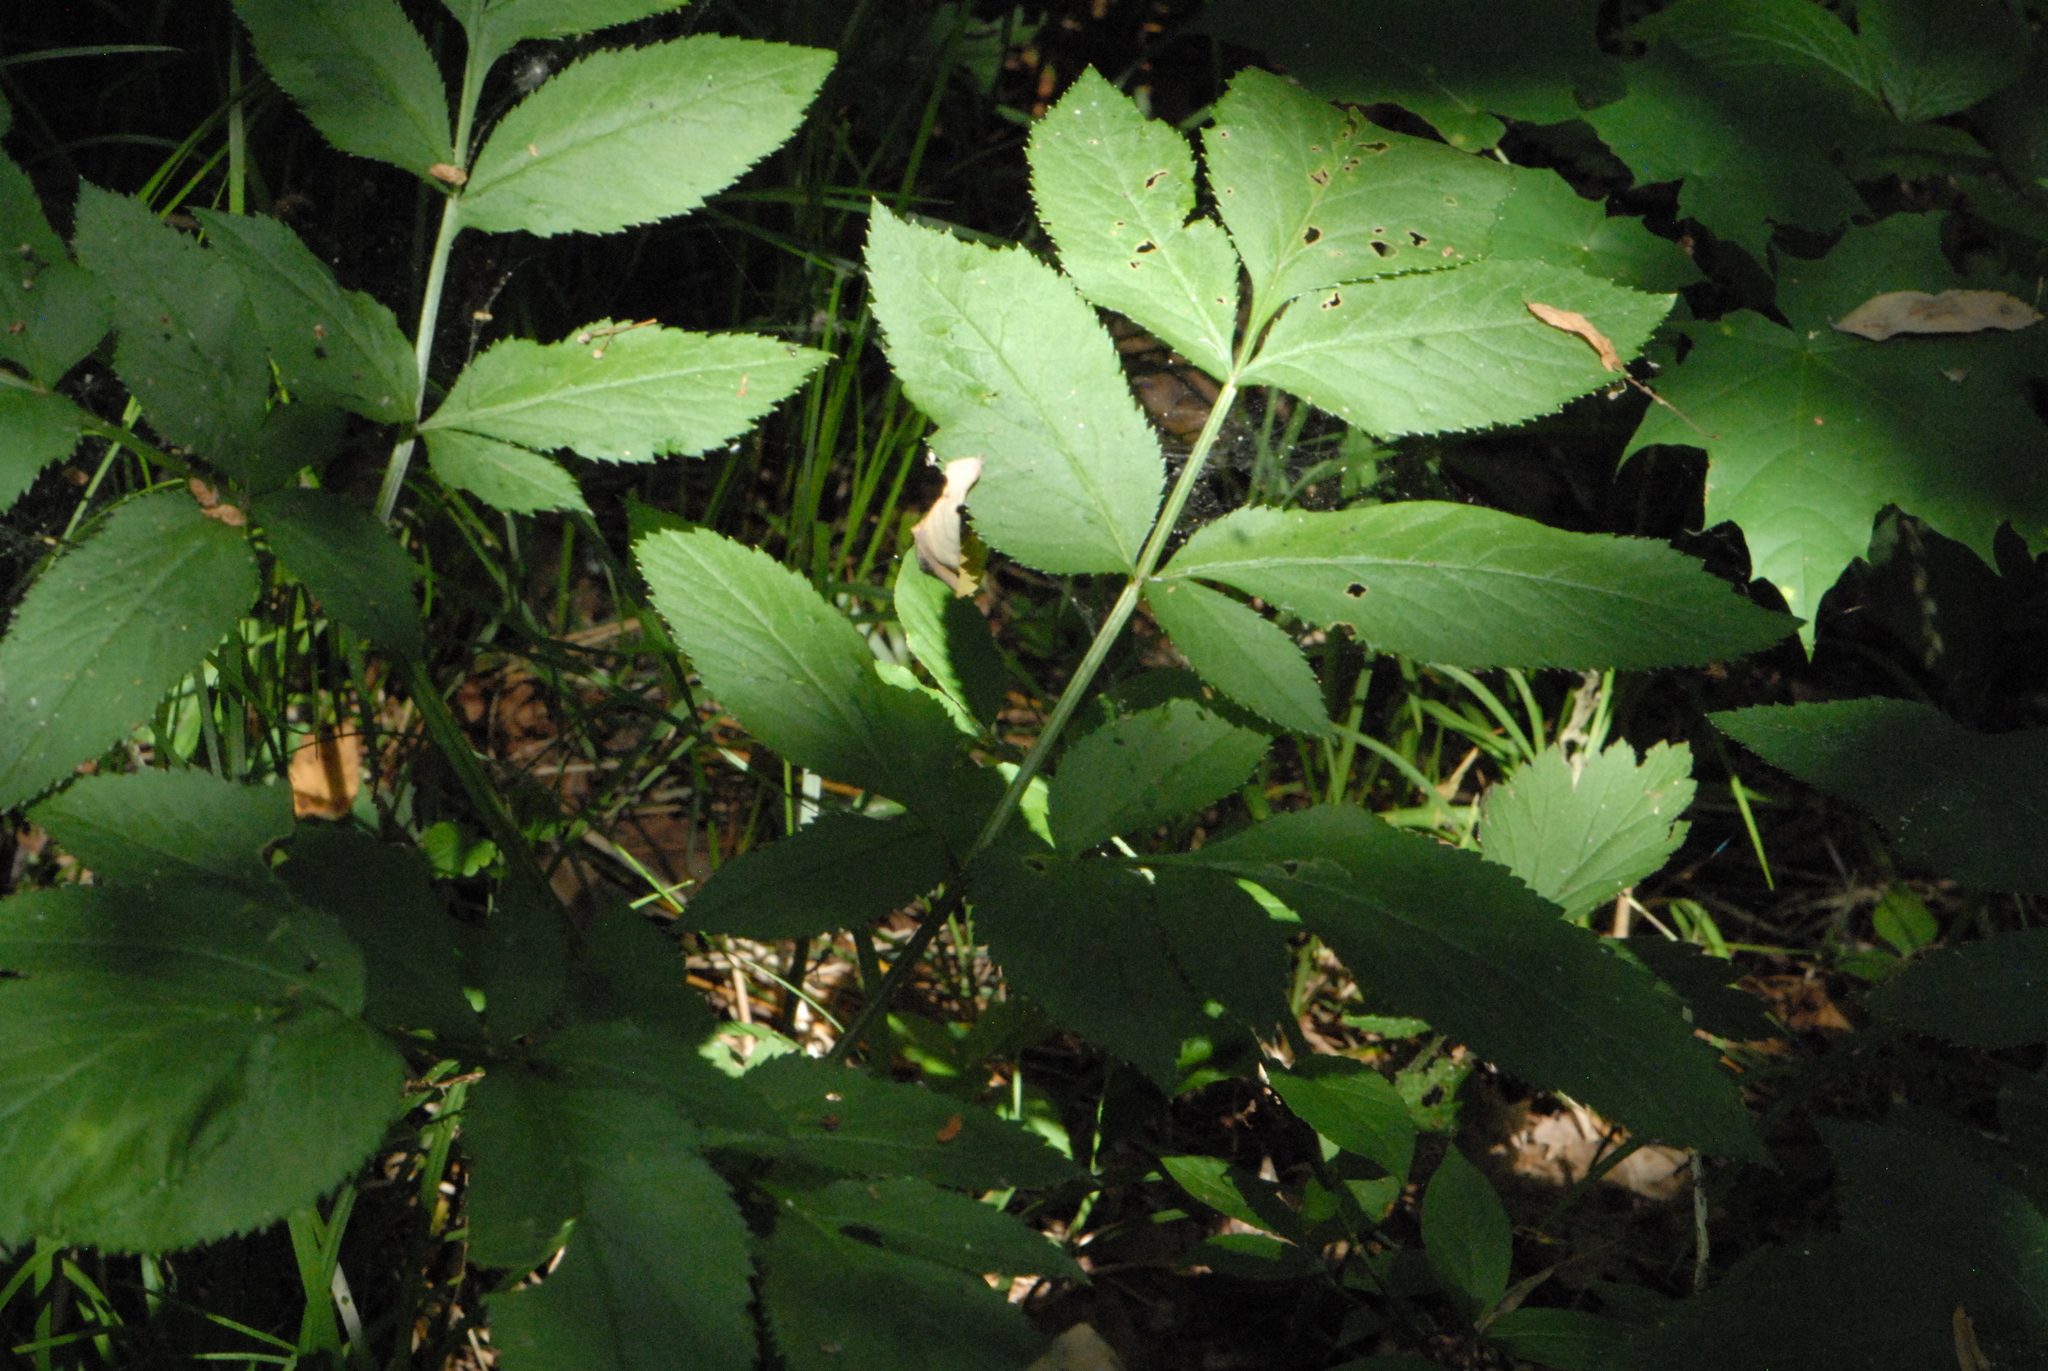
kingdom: Plantae
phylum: Tracheophyta
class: Magnoliopsida
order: Apiales
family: Apiaceae
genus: Angelica
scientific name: Angelica sylvestris
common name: Wild angelica
